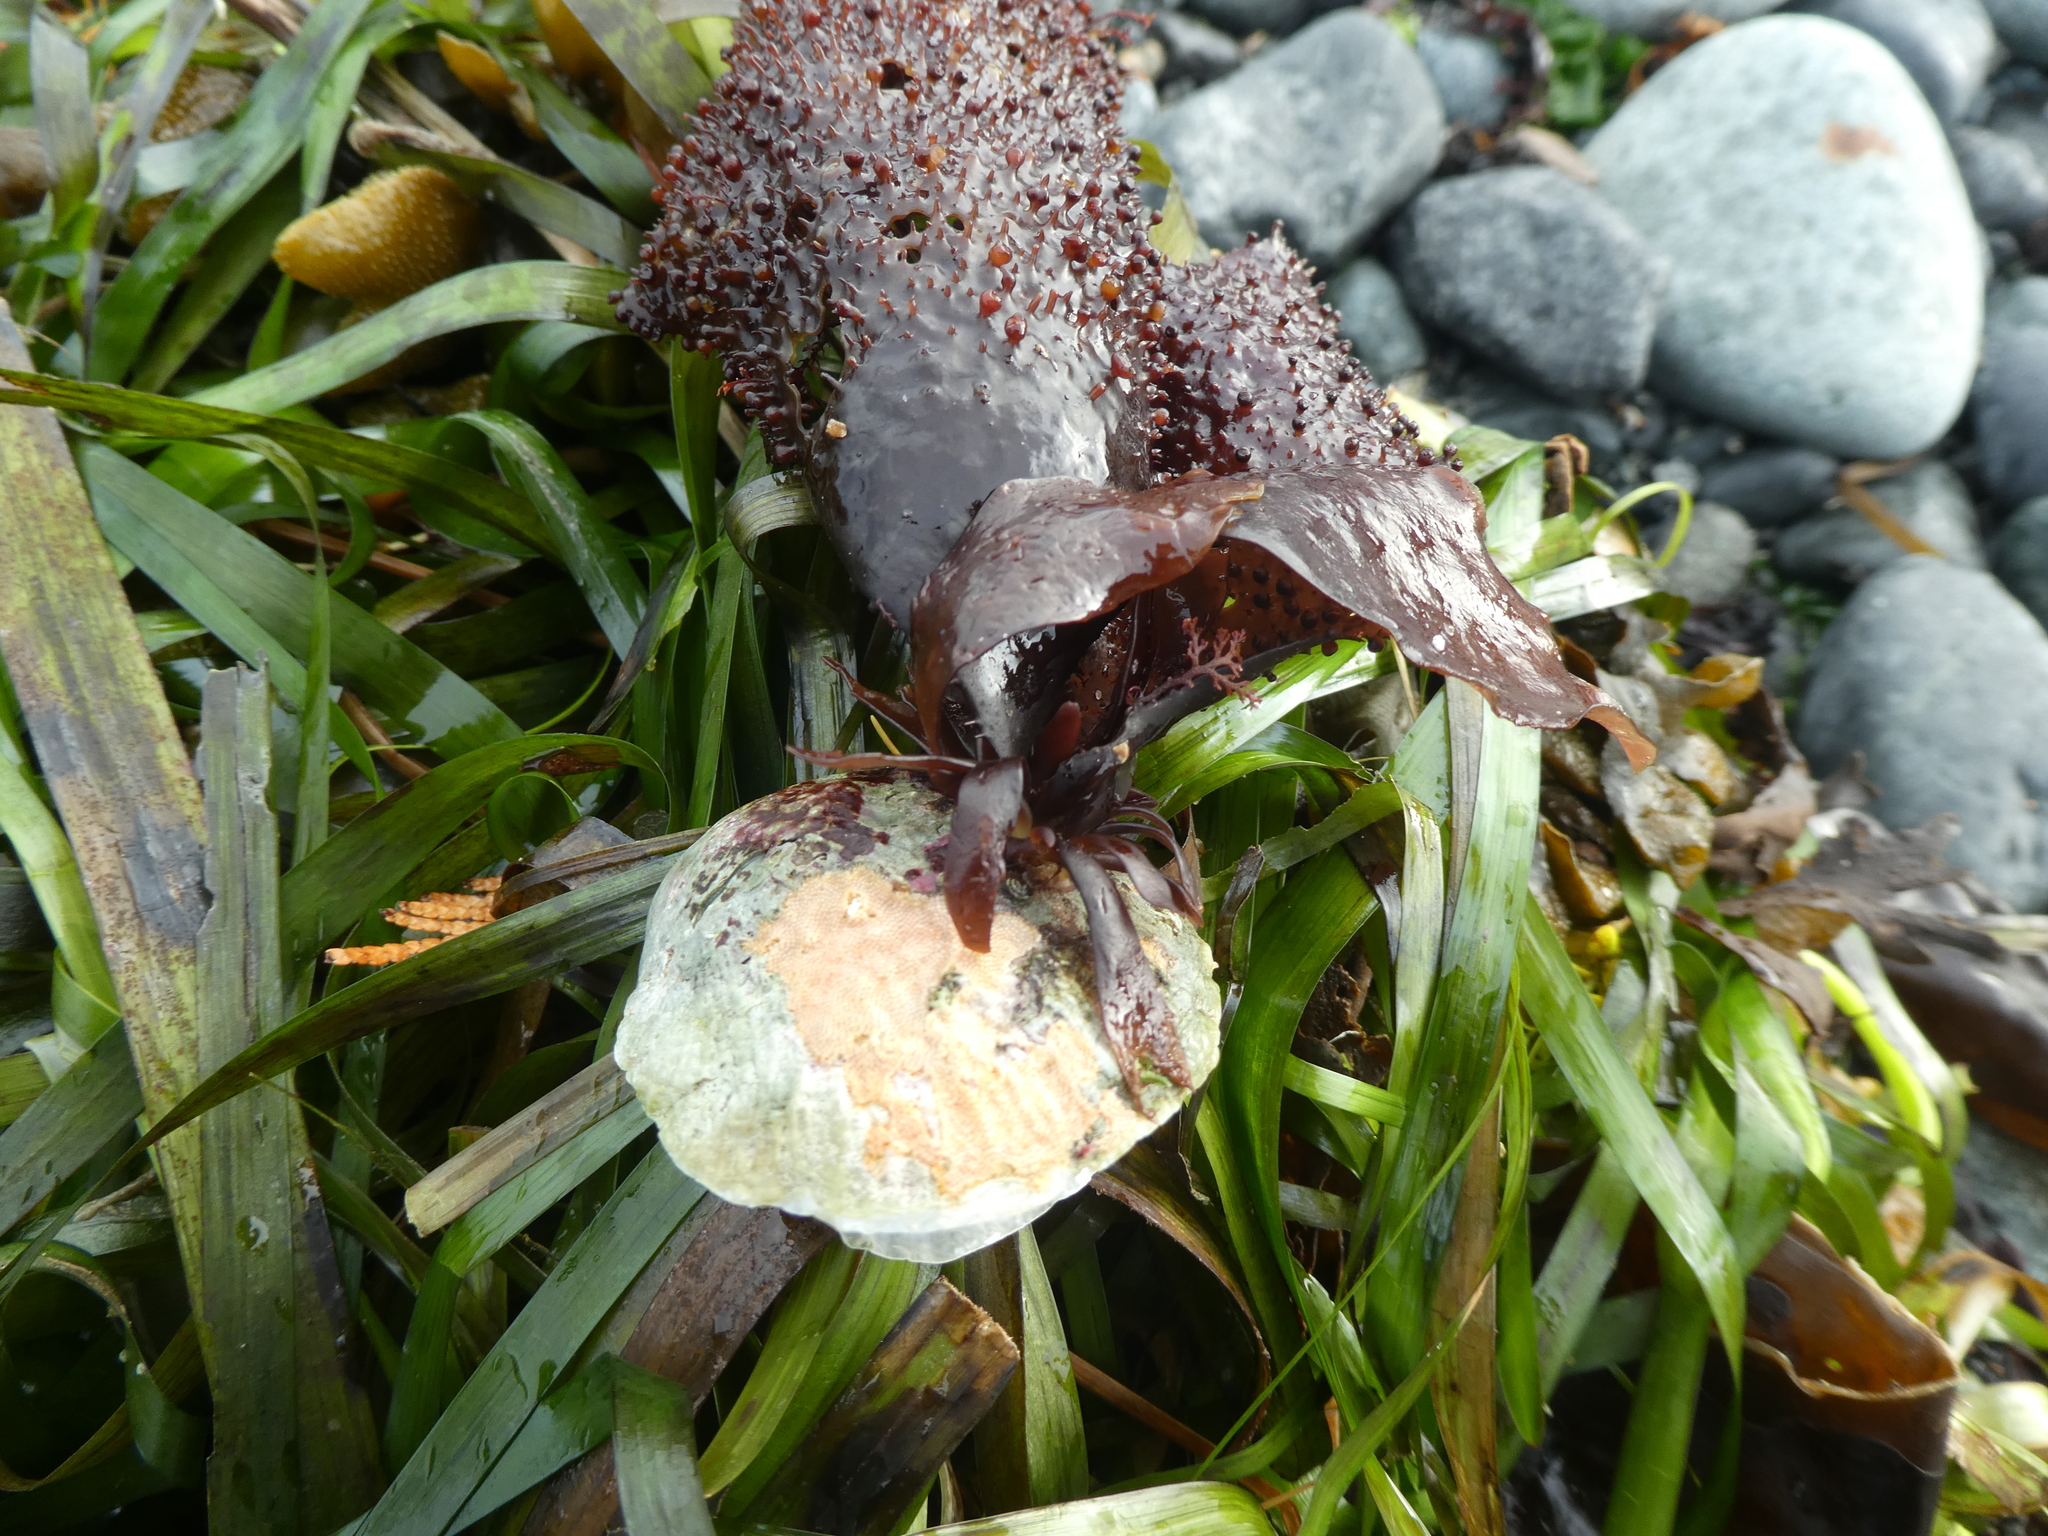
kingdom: Animalia
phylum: Mollusca
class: Bivalvia
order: Pectinida
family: Anomiidae
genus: Pododesmus
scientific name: Pododesmus macrochisma
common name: Alaska jingle
